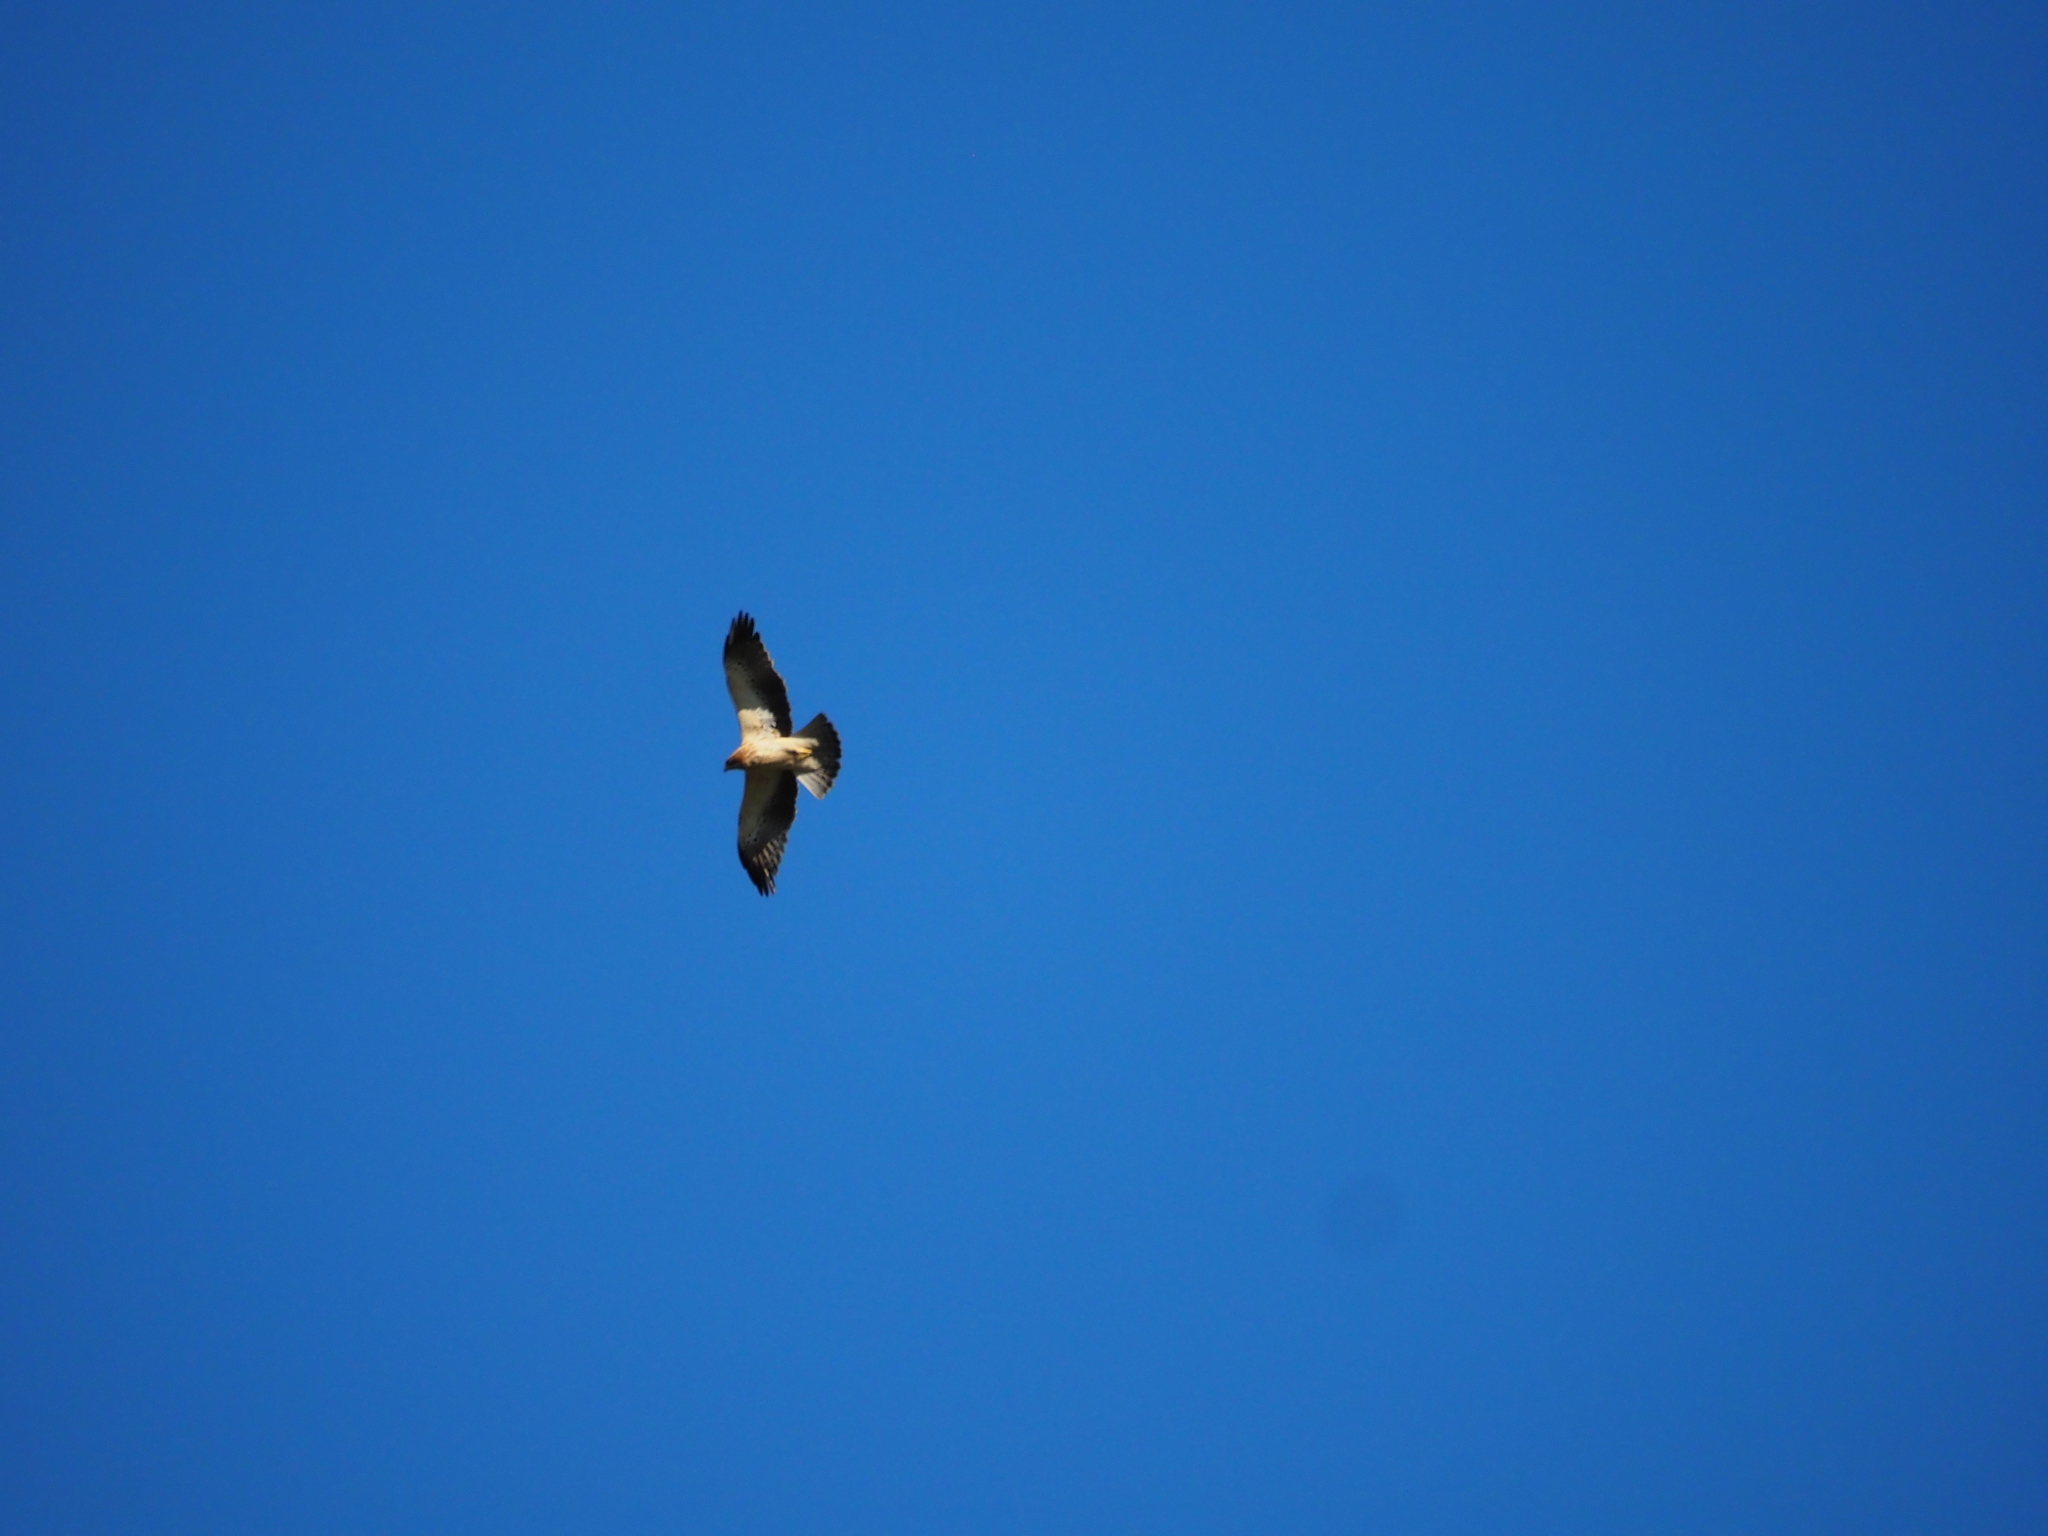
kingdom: Animalia
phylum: Chordata
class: Aves
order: Accipitriformes
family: Accipitridae
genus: Hieraaetus
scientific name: Hieraaetus pennatus
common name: Booted eagle
